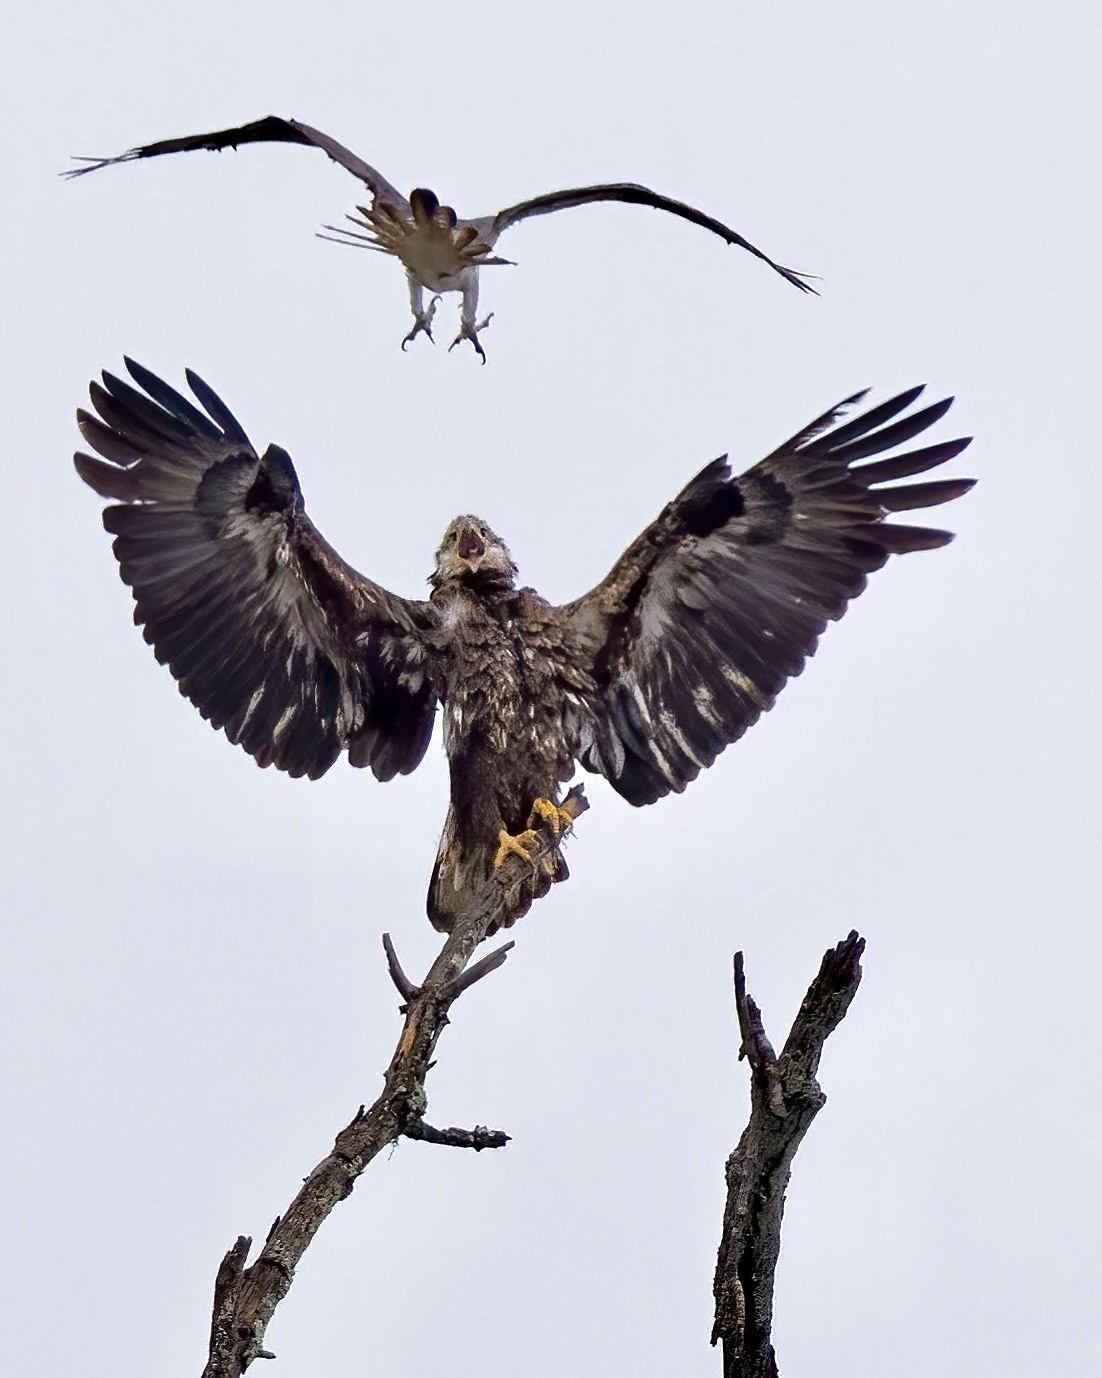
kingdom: Animalia
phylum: Chordata
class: Aves
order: Accipitriformes
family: Accipitridae
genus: Haliaeetus
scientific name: Haliaeetus leucocephalus
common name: Bald eagle
